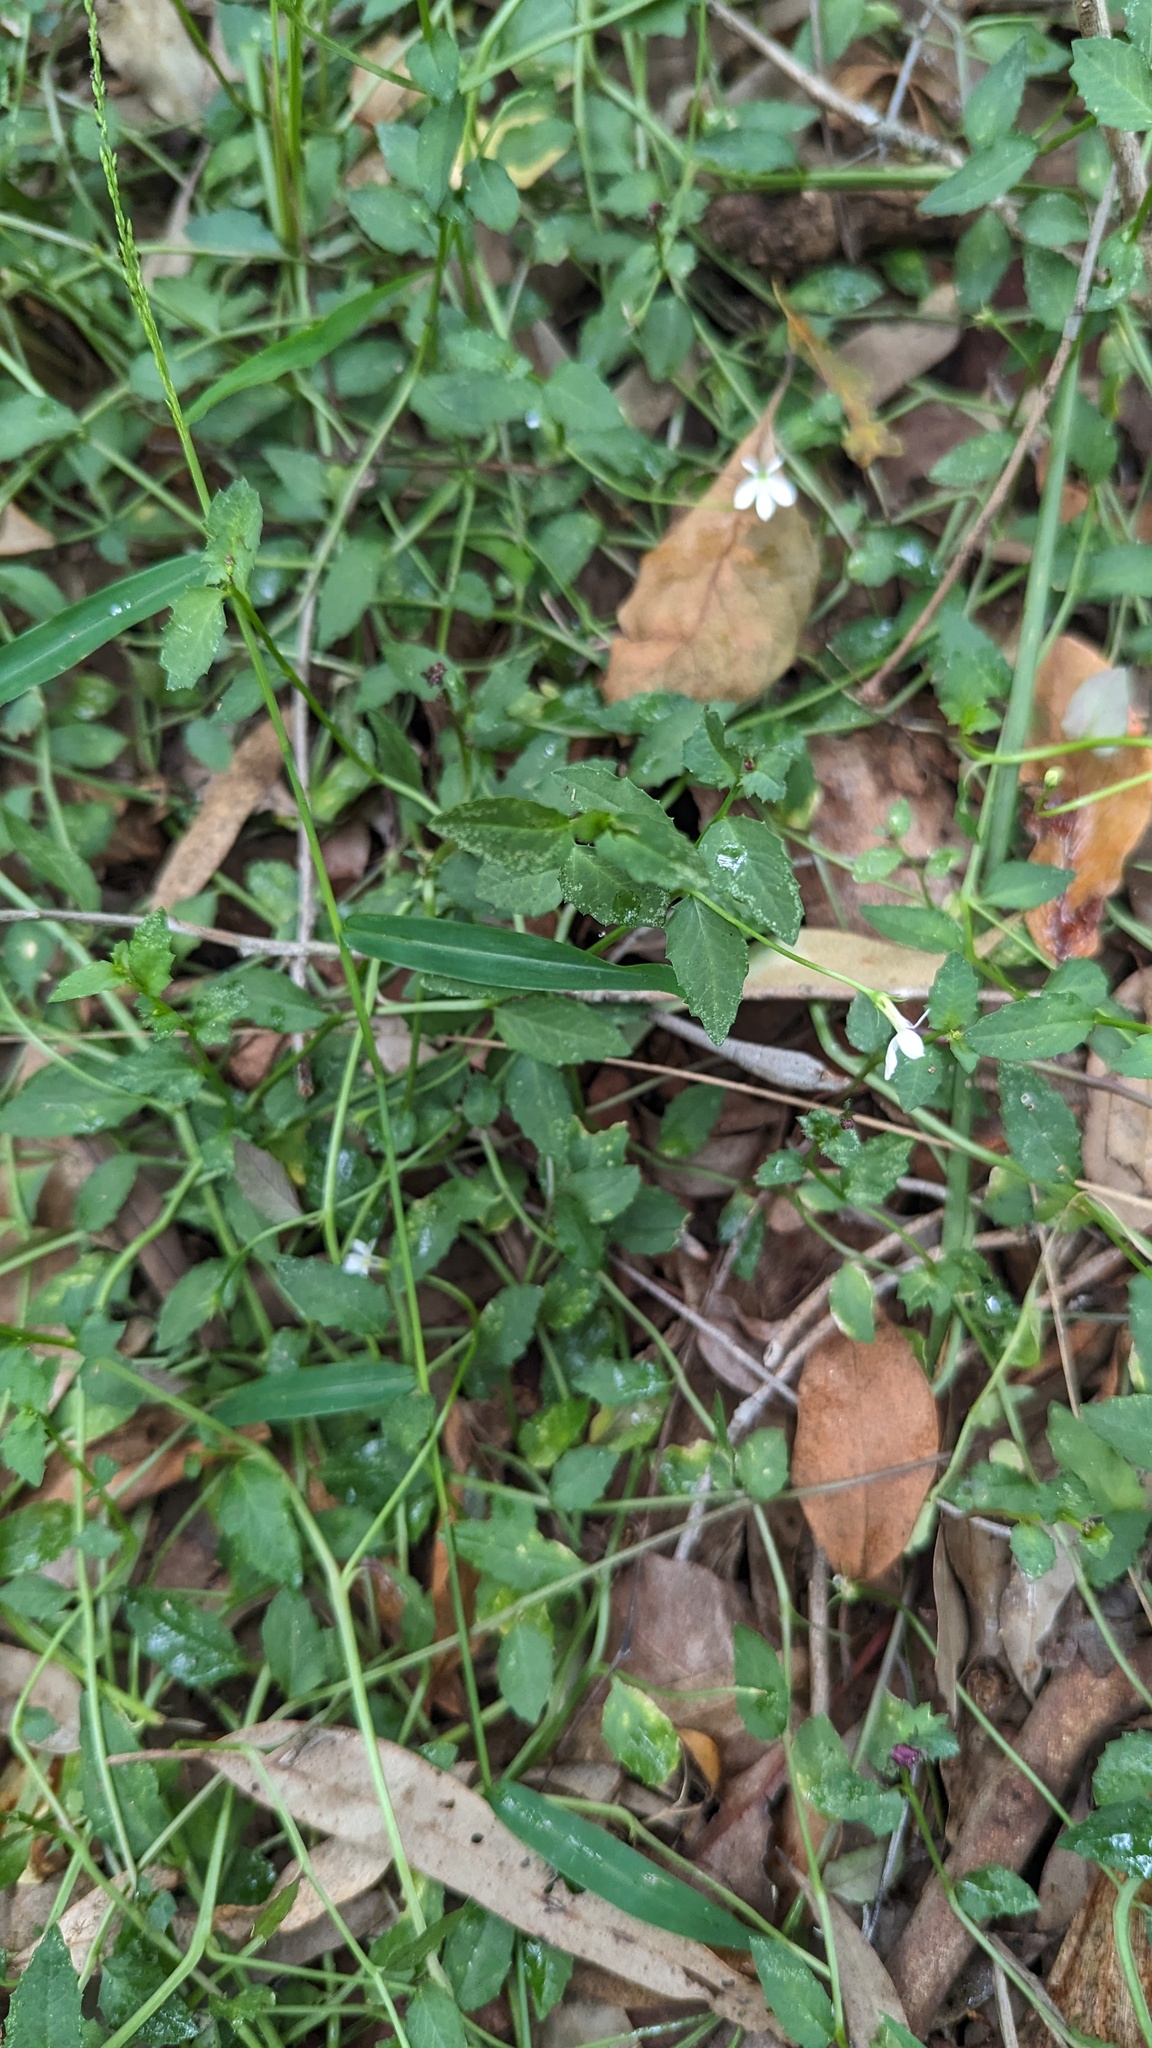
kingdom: Plantae
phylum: Tracheophyta
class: Magnoliopsida
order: Asterales
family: Campanulaceae
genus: Lobelia
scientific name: Lobelia purpurascens
